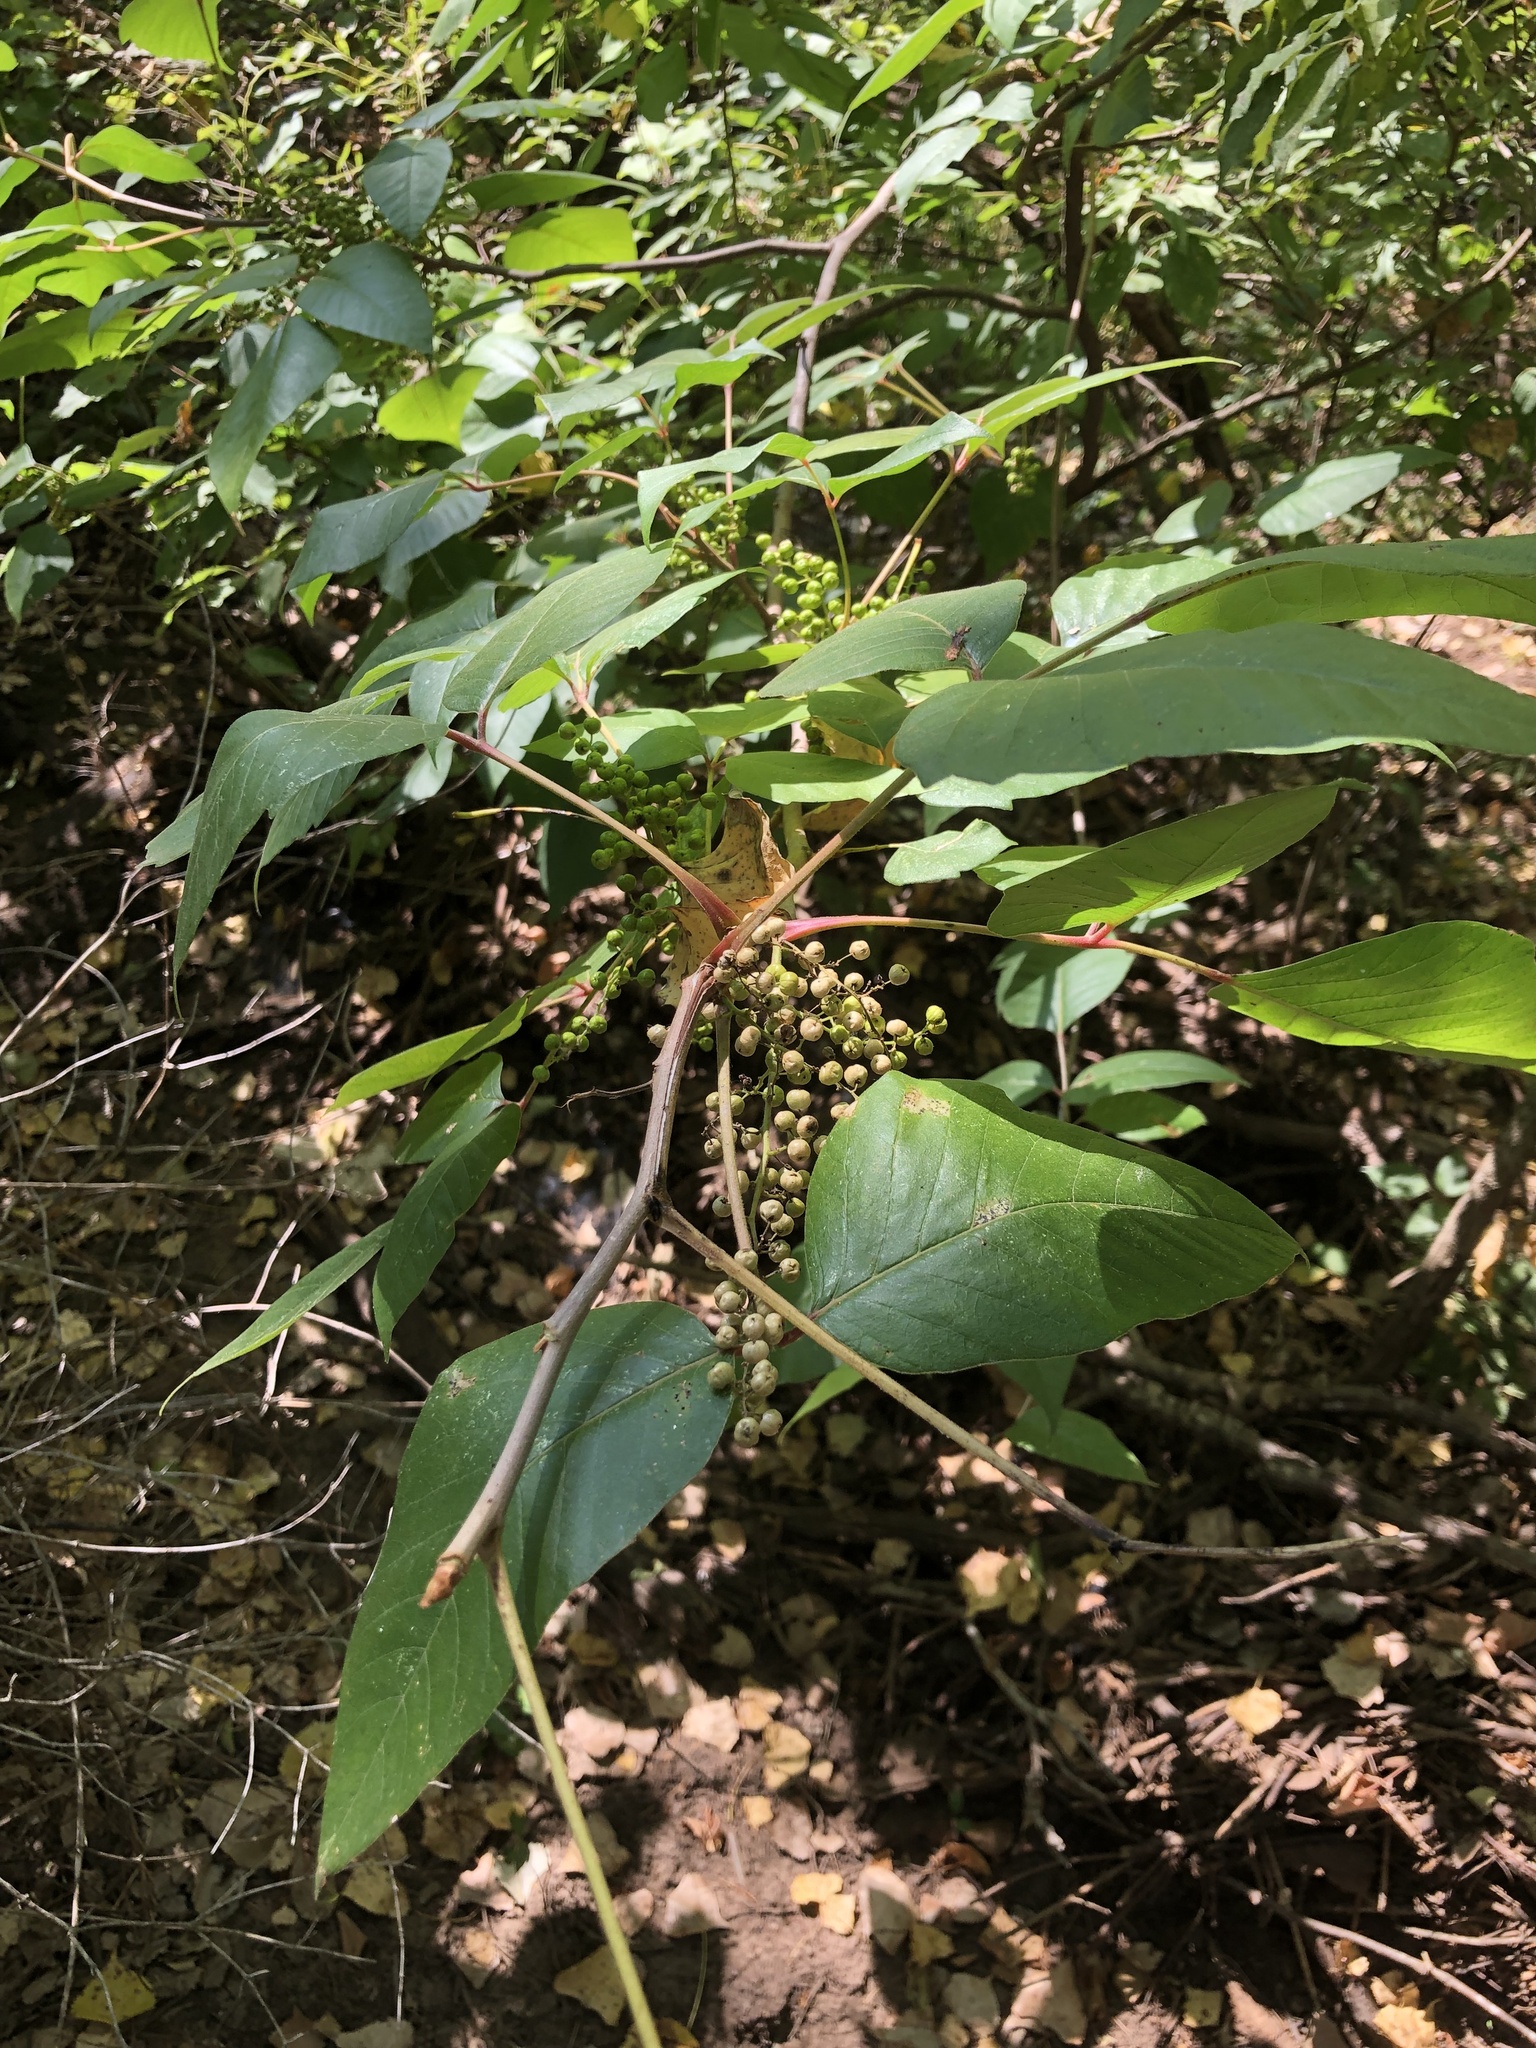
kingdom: Plantae
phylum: Tracheophyta
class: Magnoliopsida
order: Sapindales
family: Anacardiaceae
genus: Toxicodendron
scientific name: Toxicodendron radicans
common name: Poison ivy
